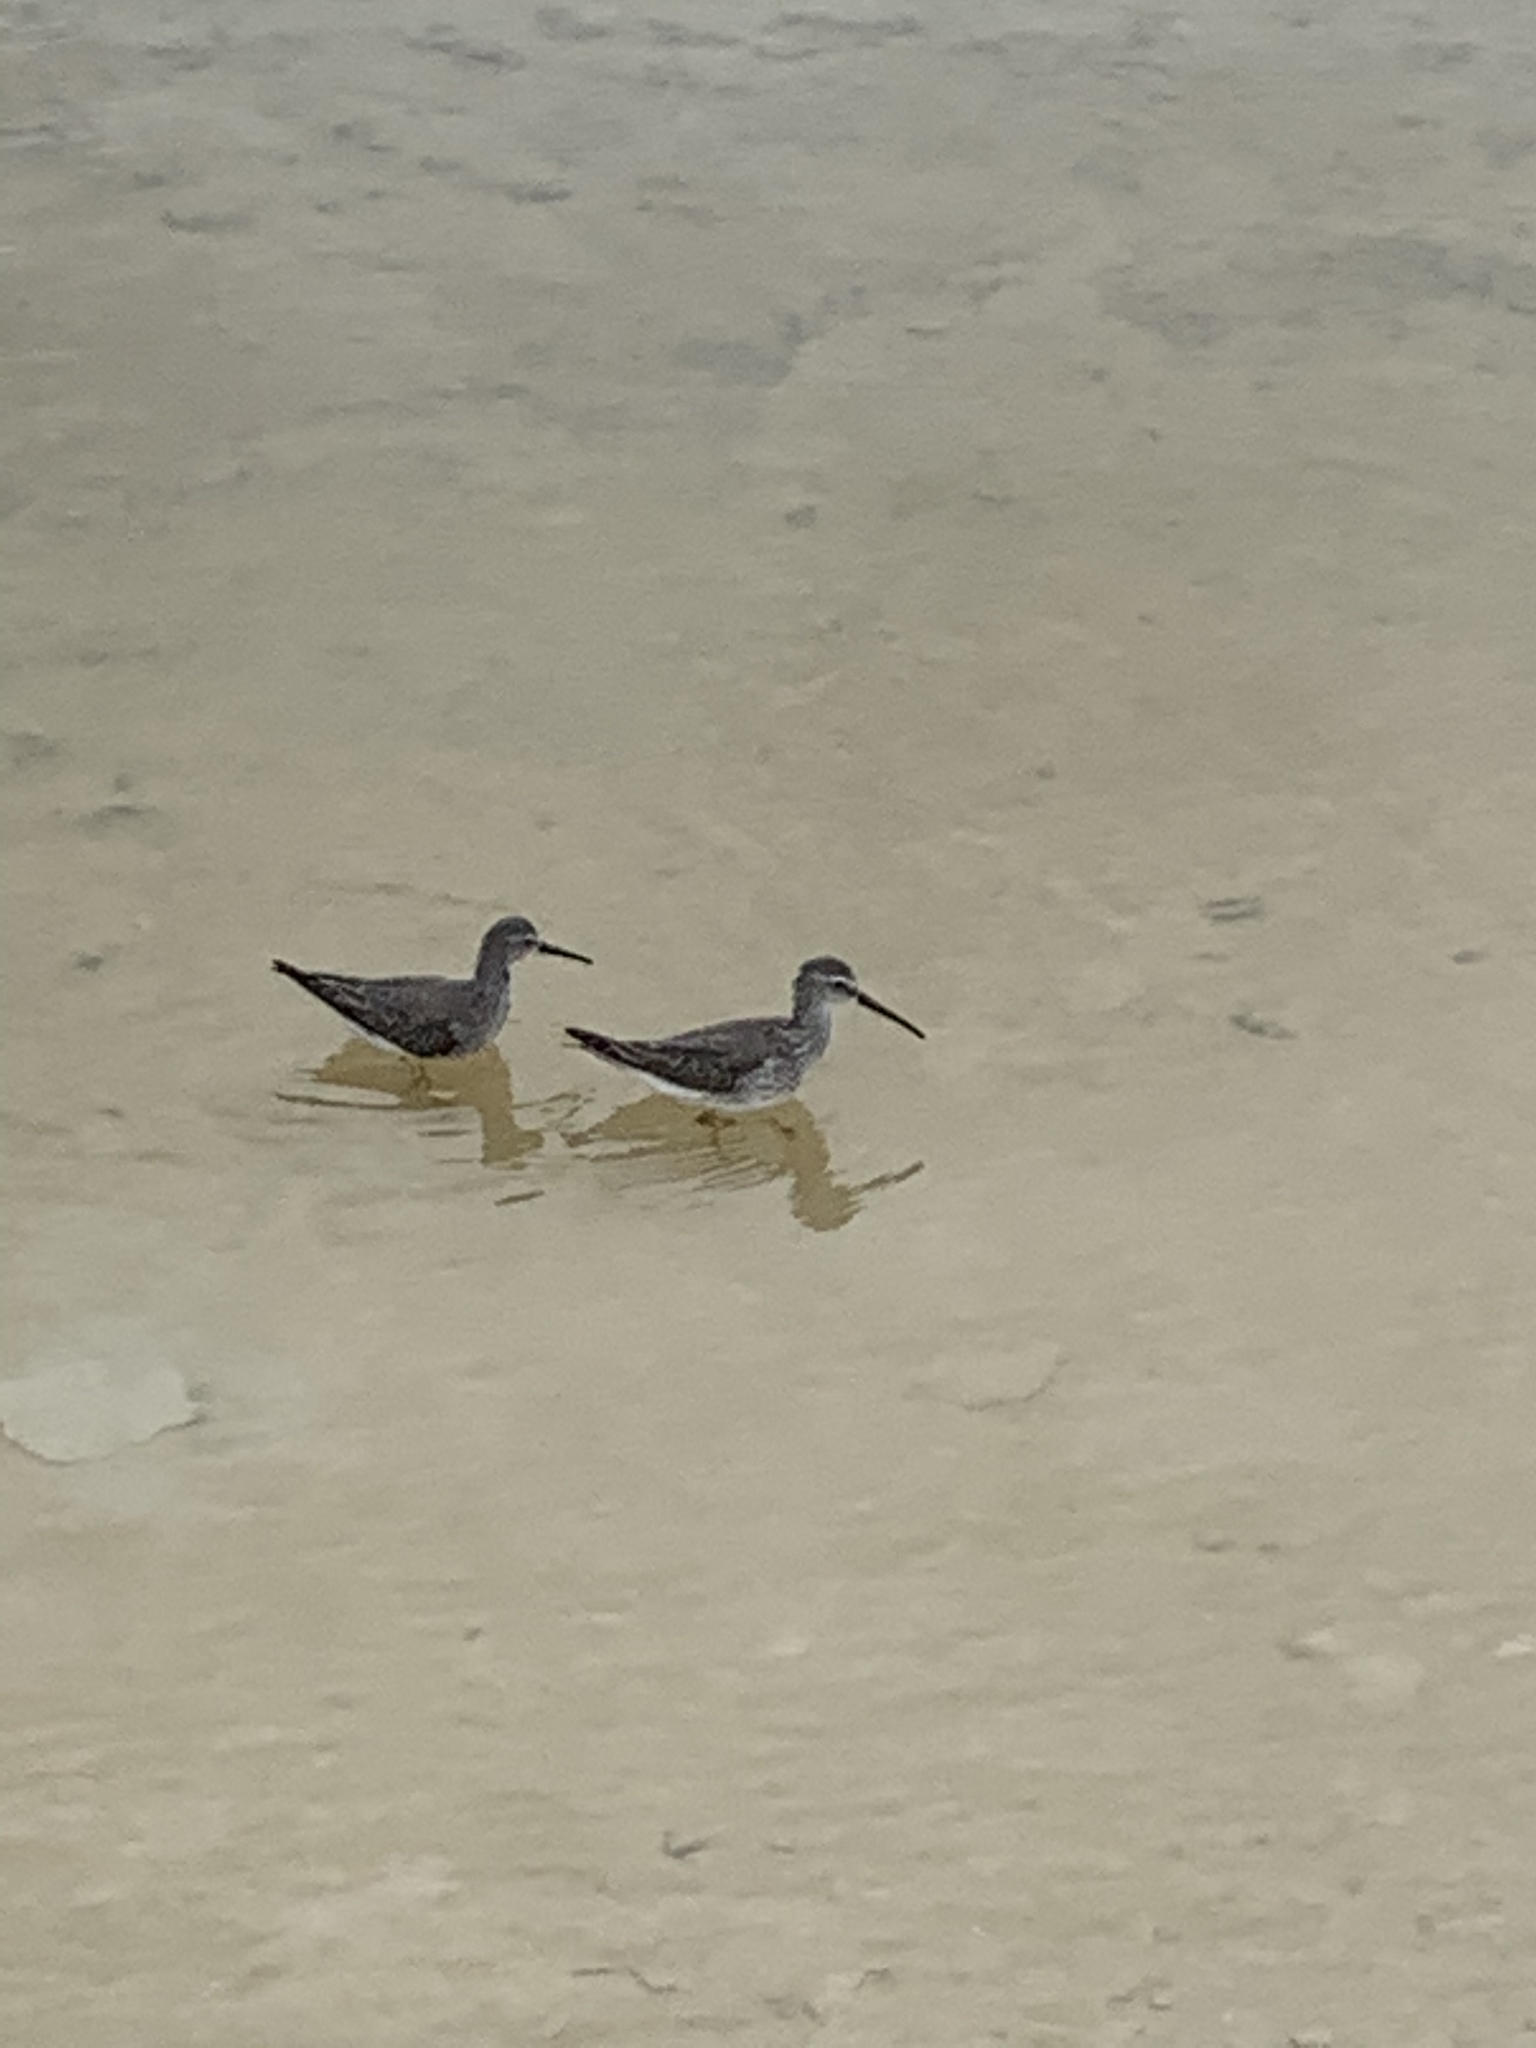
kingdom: Animalia
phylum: Chordata
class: Aves
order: Charadriiformes
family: Scolopacidae
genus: Calidris
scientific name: Calidris himantopus
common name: Stilt sandpiper
